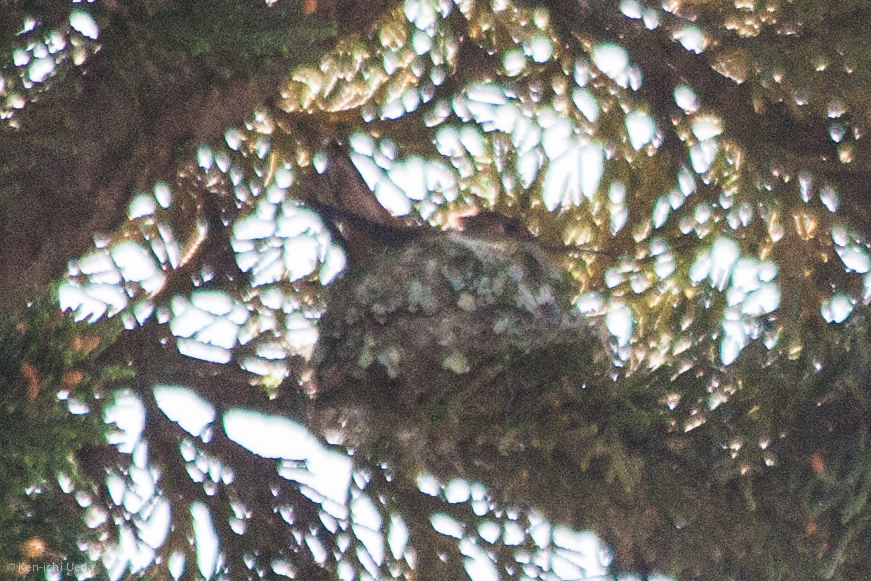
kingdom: Animalia
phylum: Chordata
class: Aves
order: Apodiformes
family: Trochilidae
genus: Selasphorus
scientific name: Selasphorus sasin
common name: Allen's hummingbird
